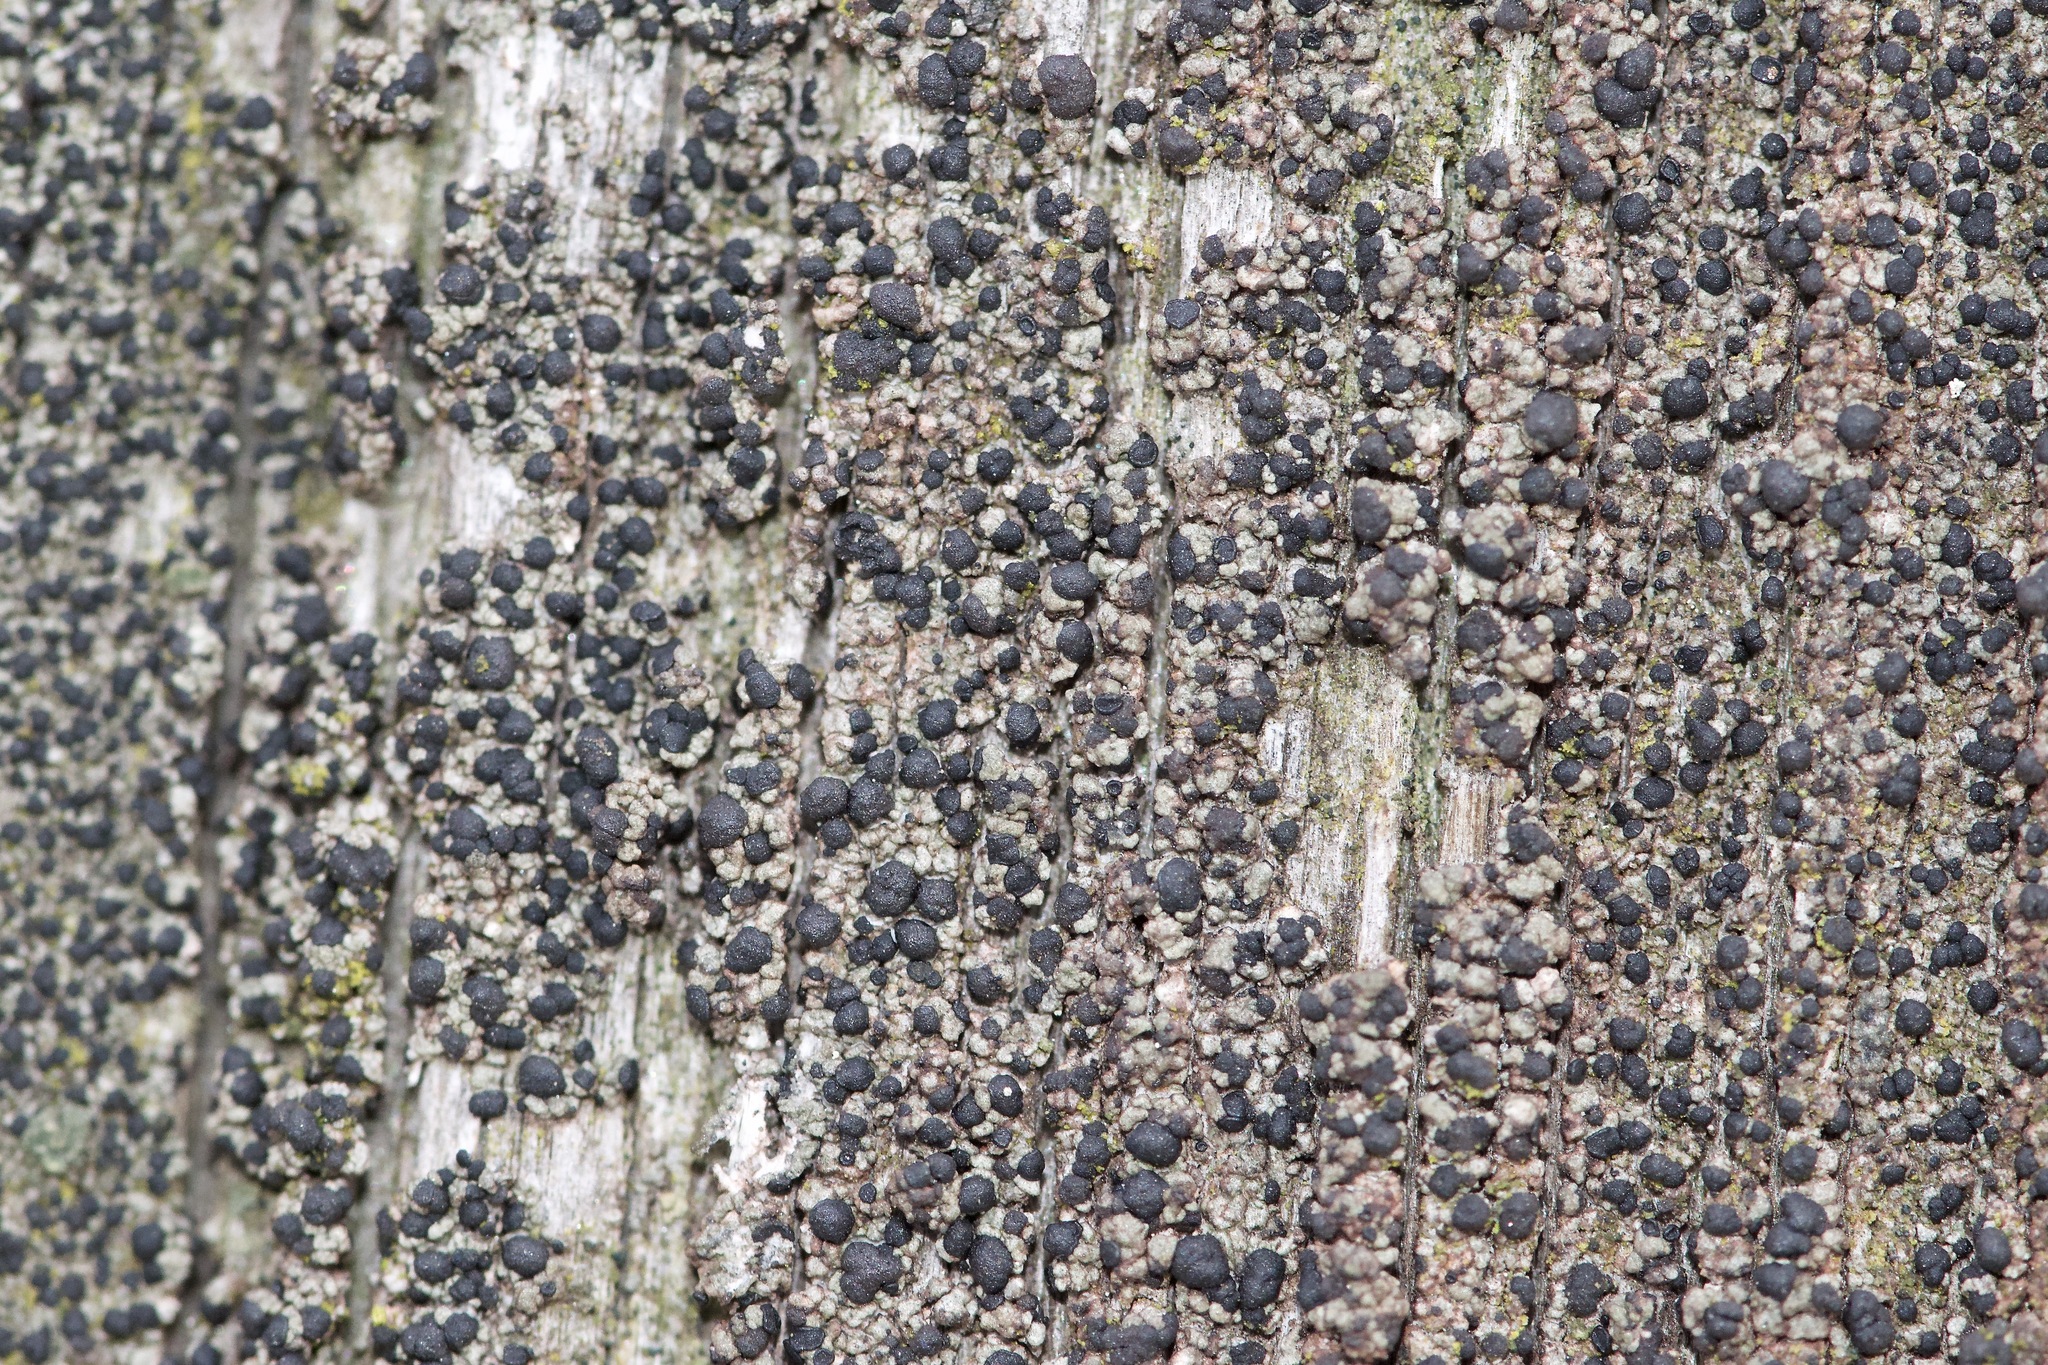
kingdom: Fungi
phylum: Ascomycota
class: Lecanoromycetes
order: Baeomycetales
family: Trapeliaceae
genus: Trapeliopsis
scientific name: Trapeliopsis flexuosa
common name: Board lichen
